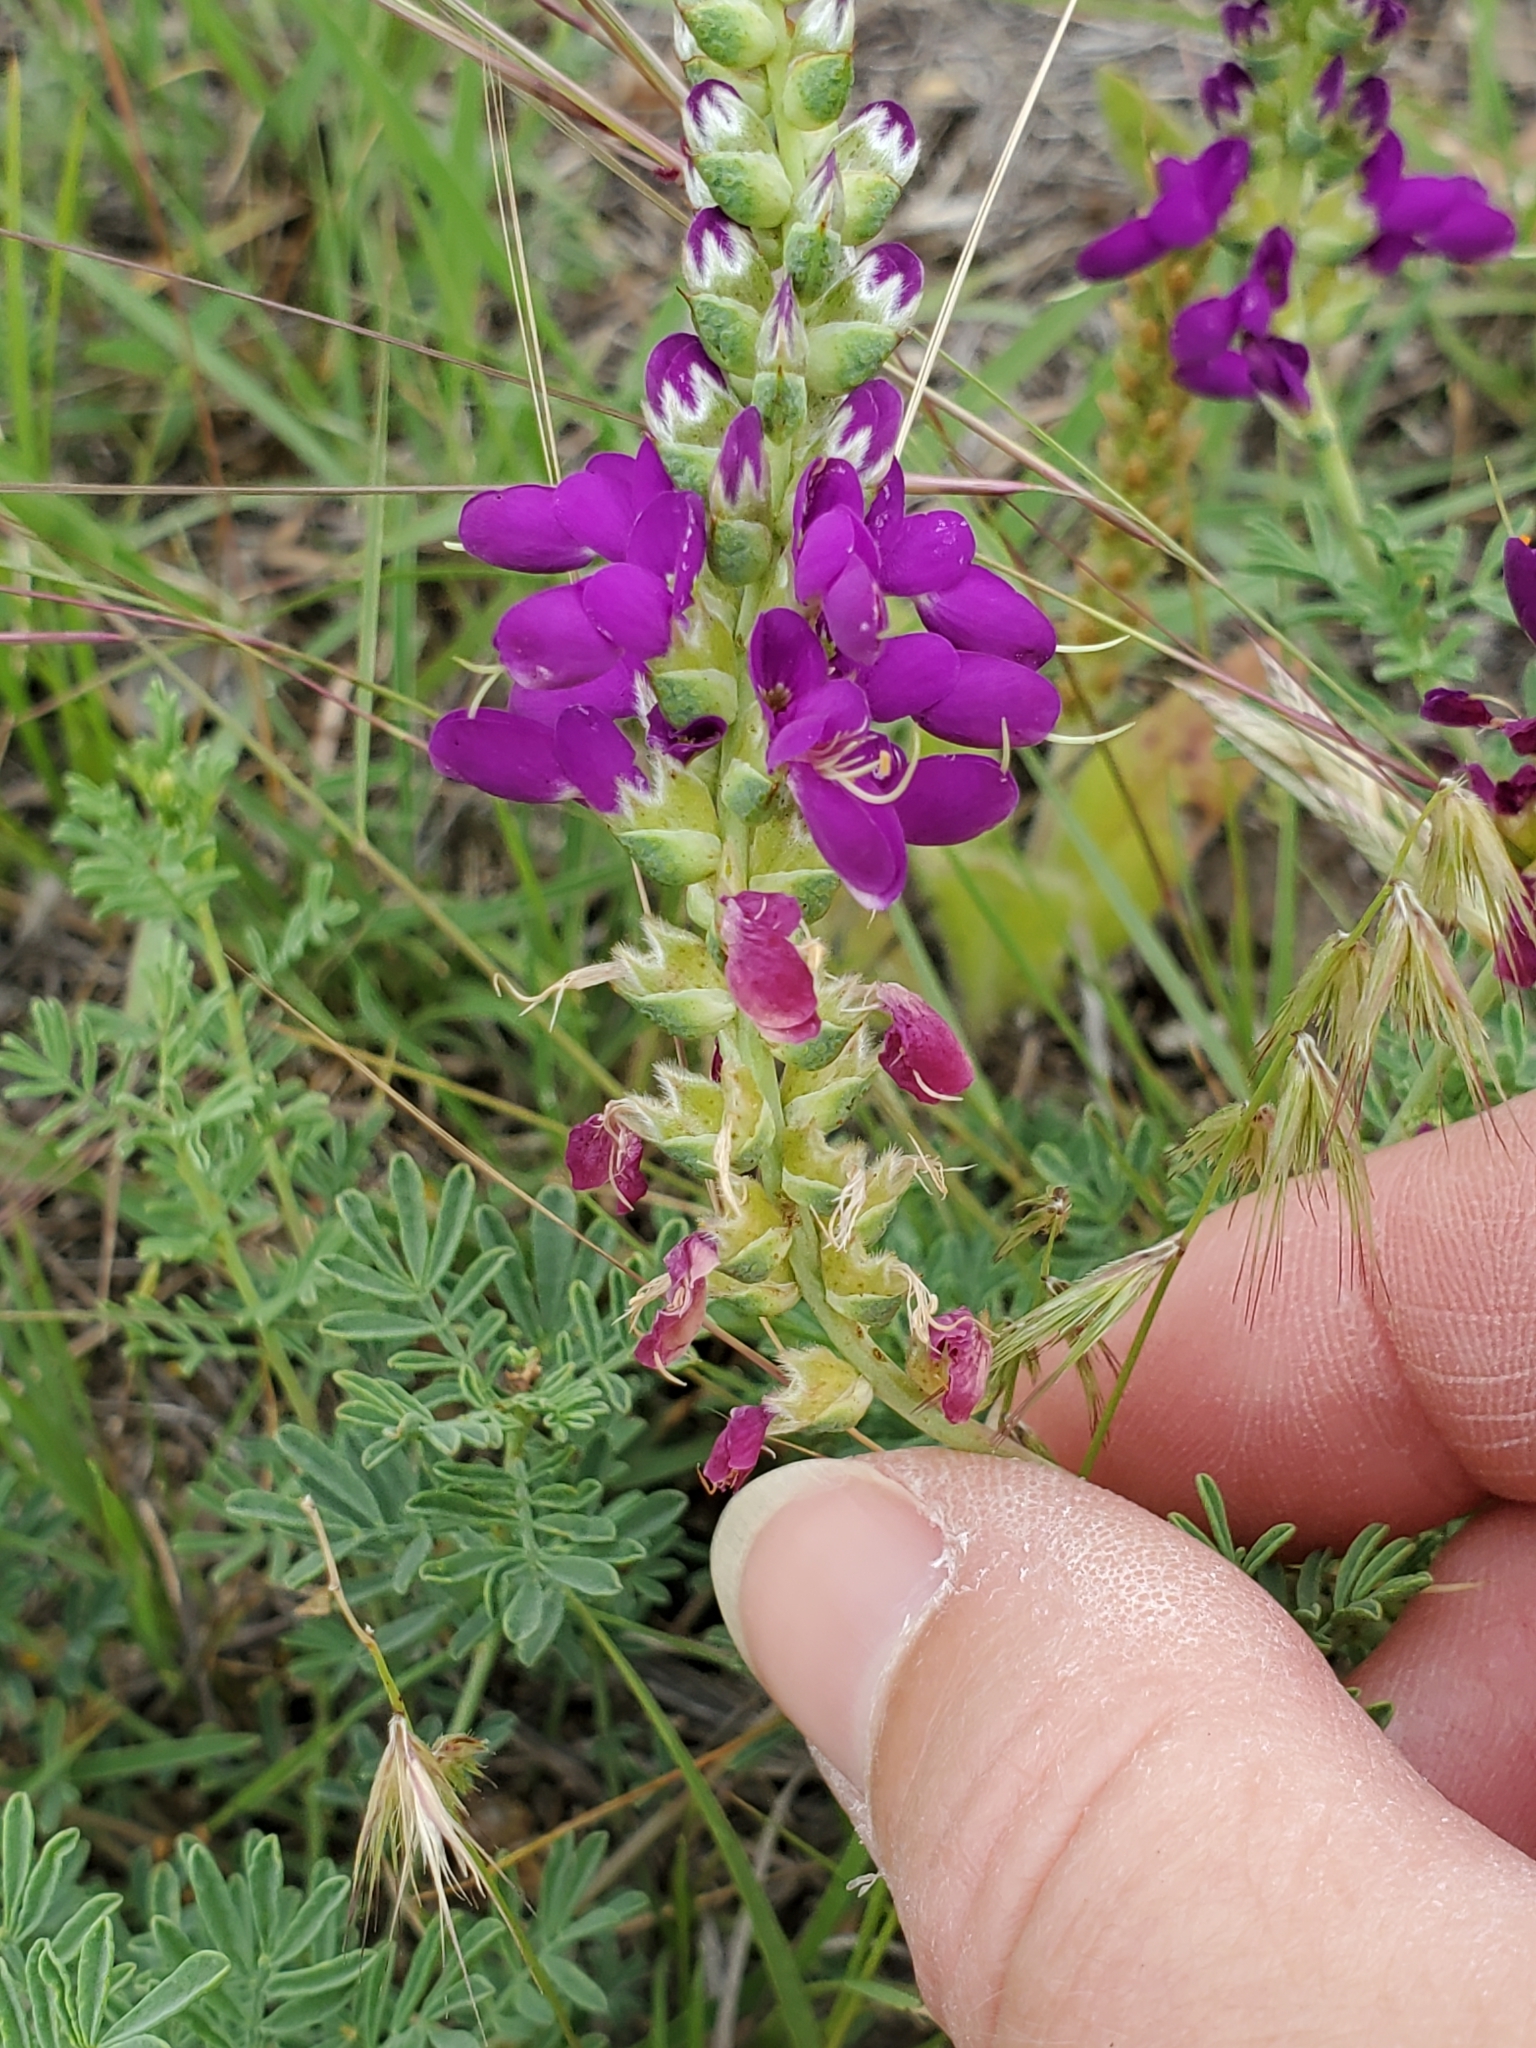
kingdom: Plantae
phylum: Tracheophyta
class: Magnoliopsida
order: Fabales
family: Fabaceae
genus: Dalea
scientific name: Dalea lasiathera
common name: Purple prairie-clover
